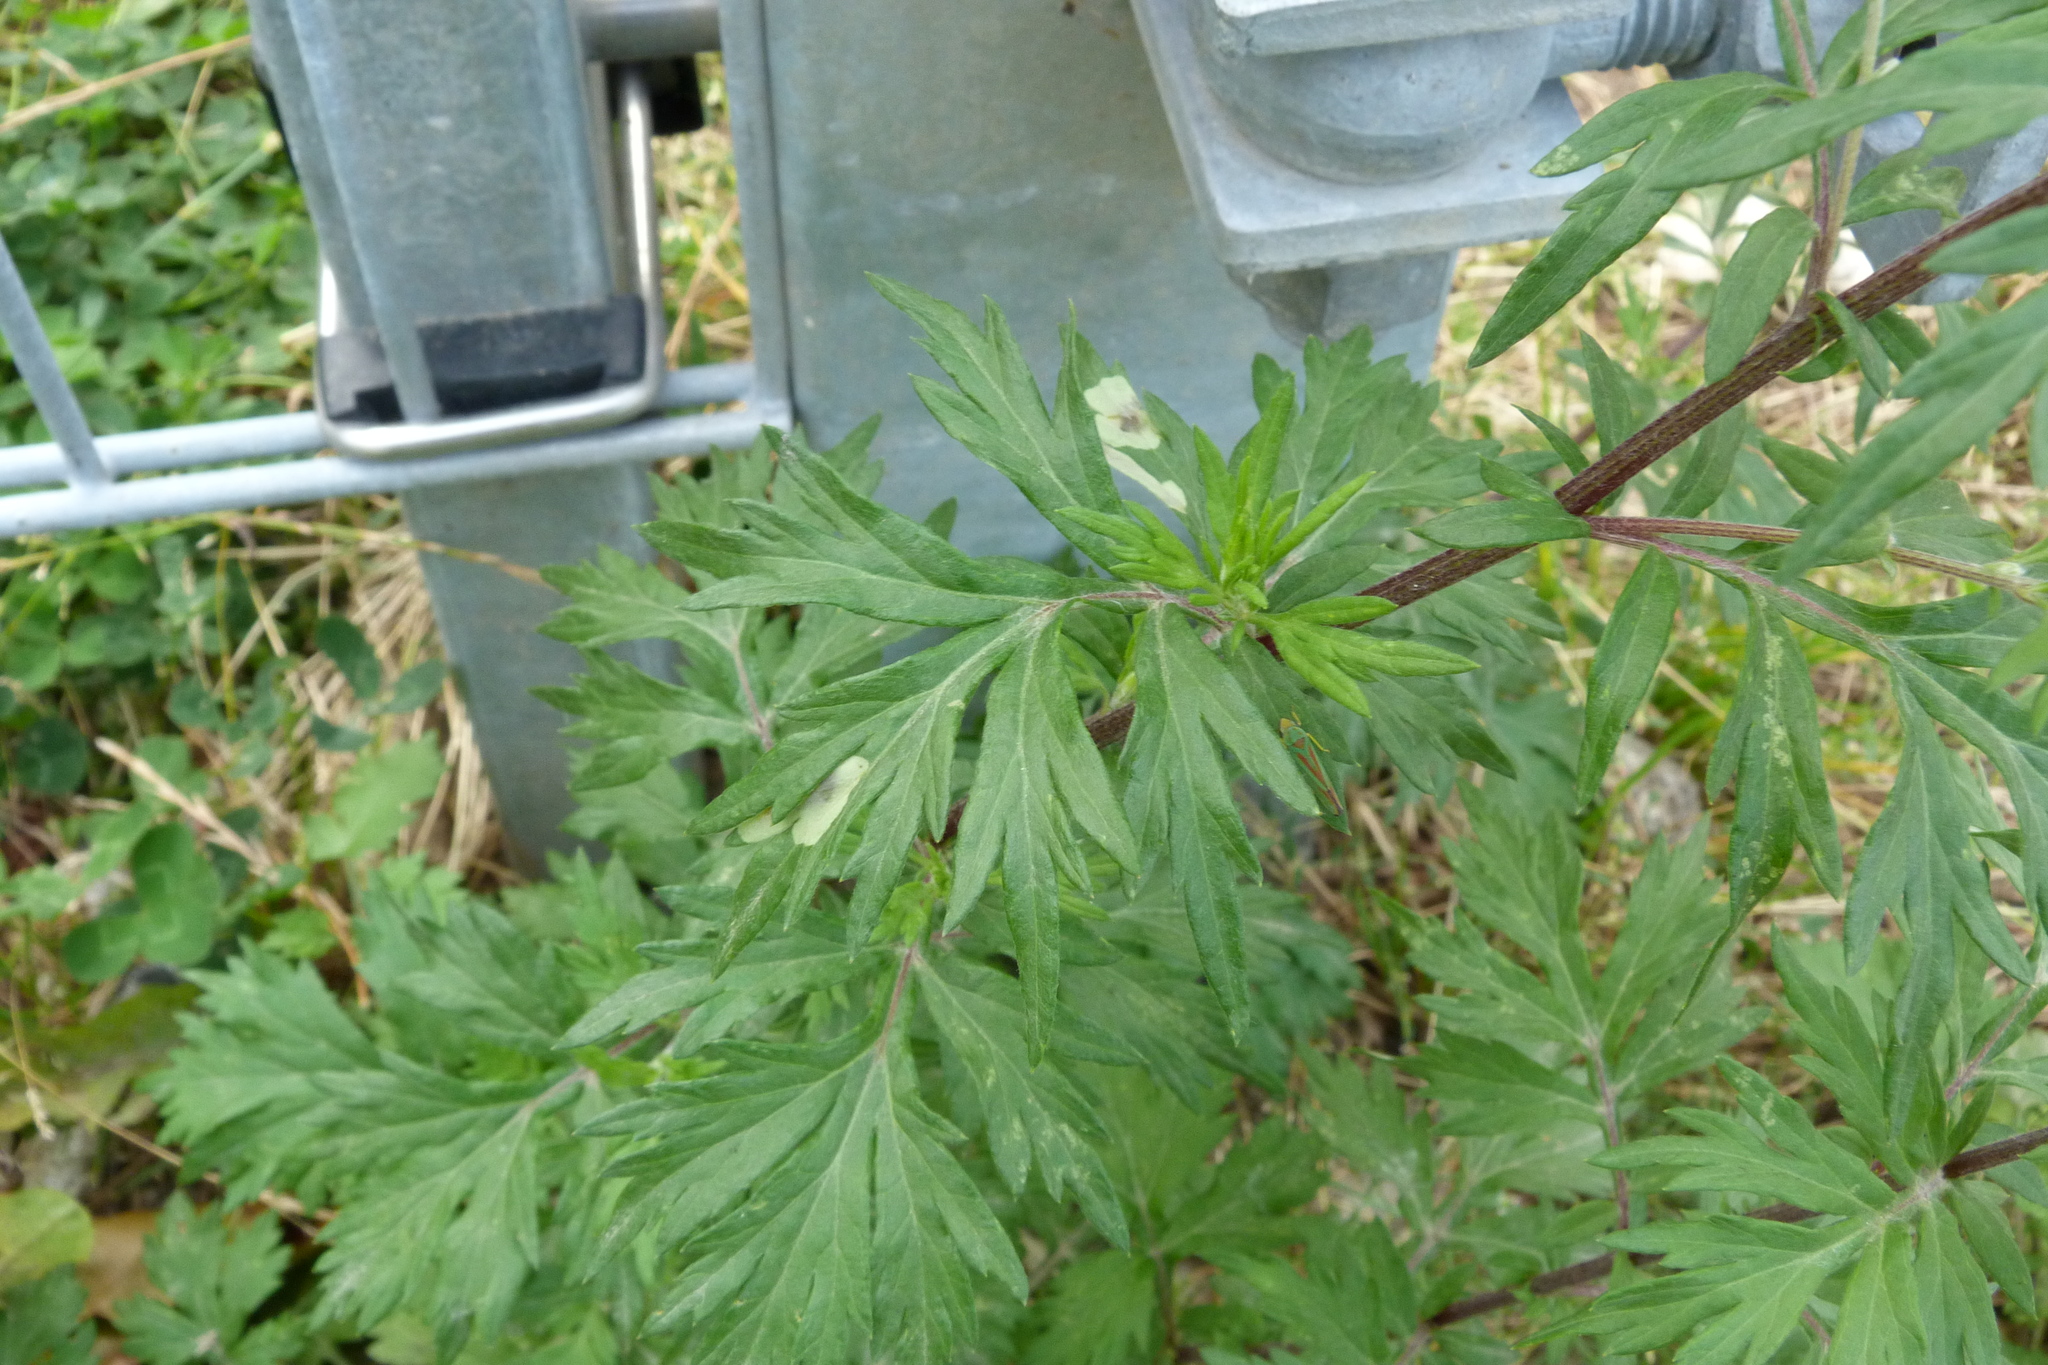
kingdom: Plantae
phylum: Tracheophyta
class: Magnoliopsida
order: Asterales
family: Asteraceae
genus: Artemisia
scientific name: Artemisia vulgaris
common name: Mugwort
